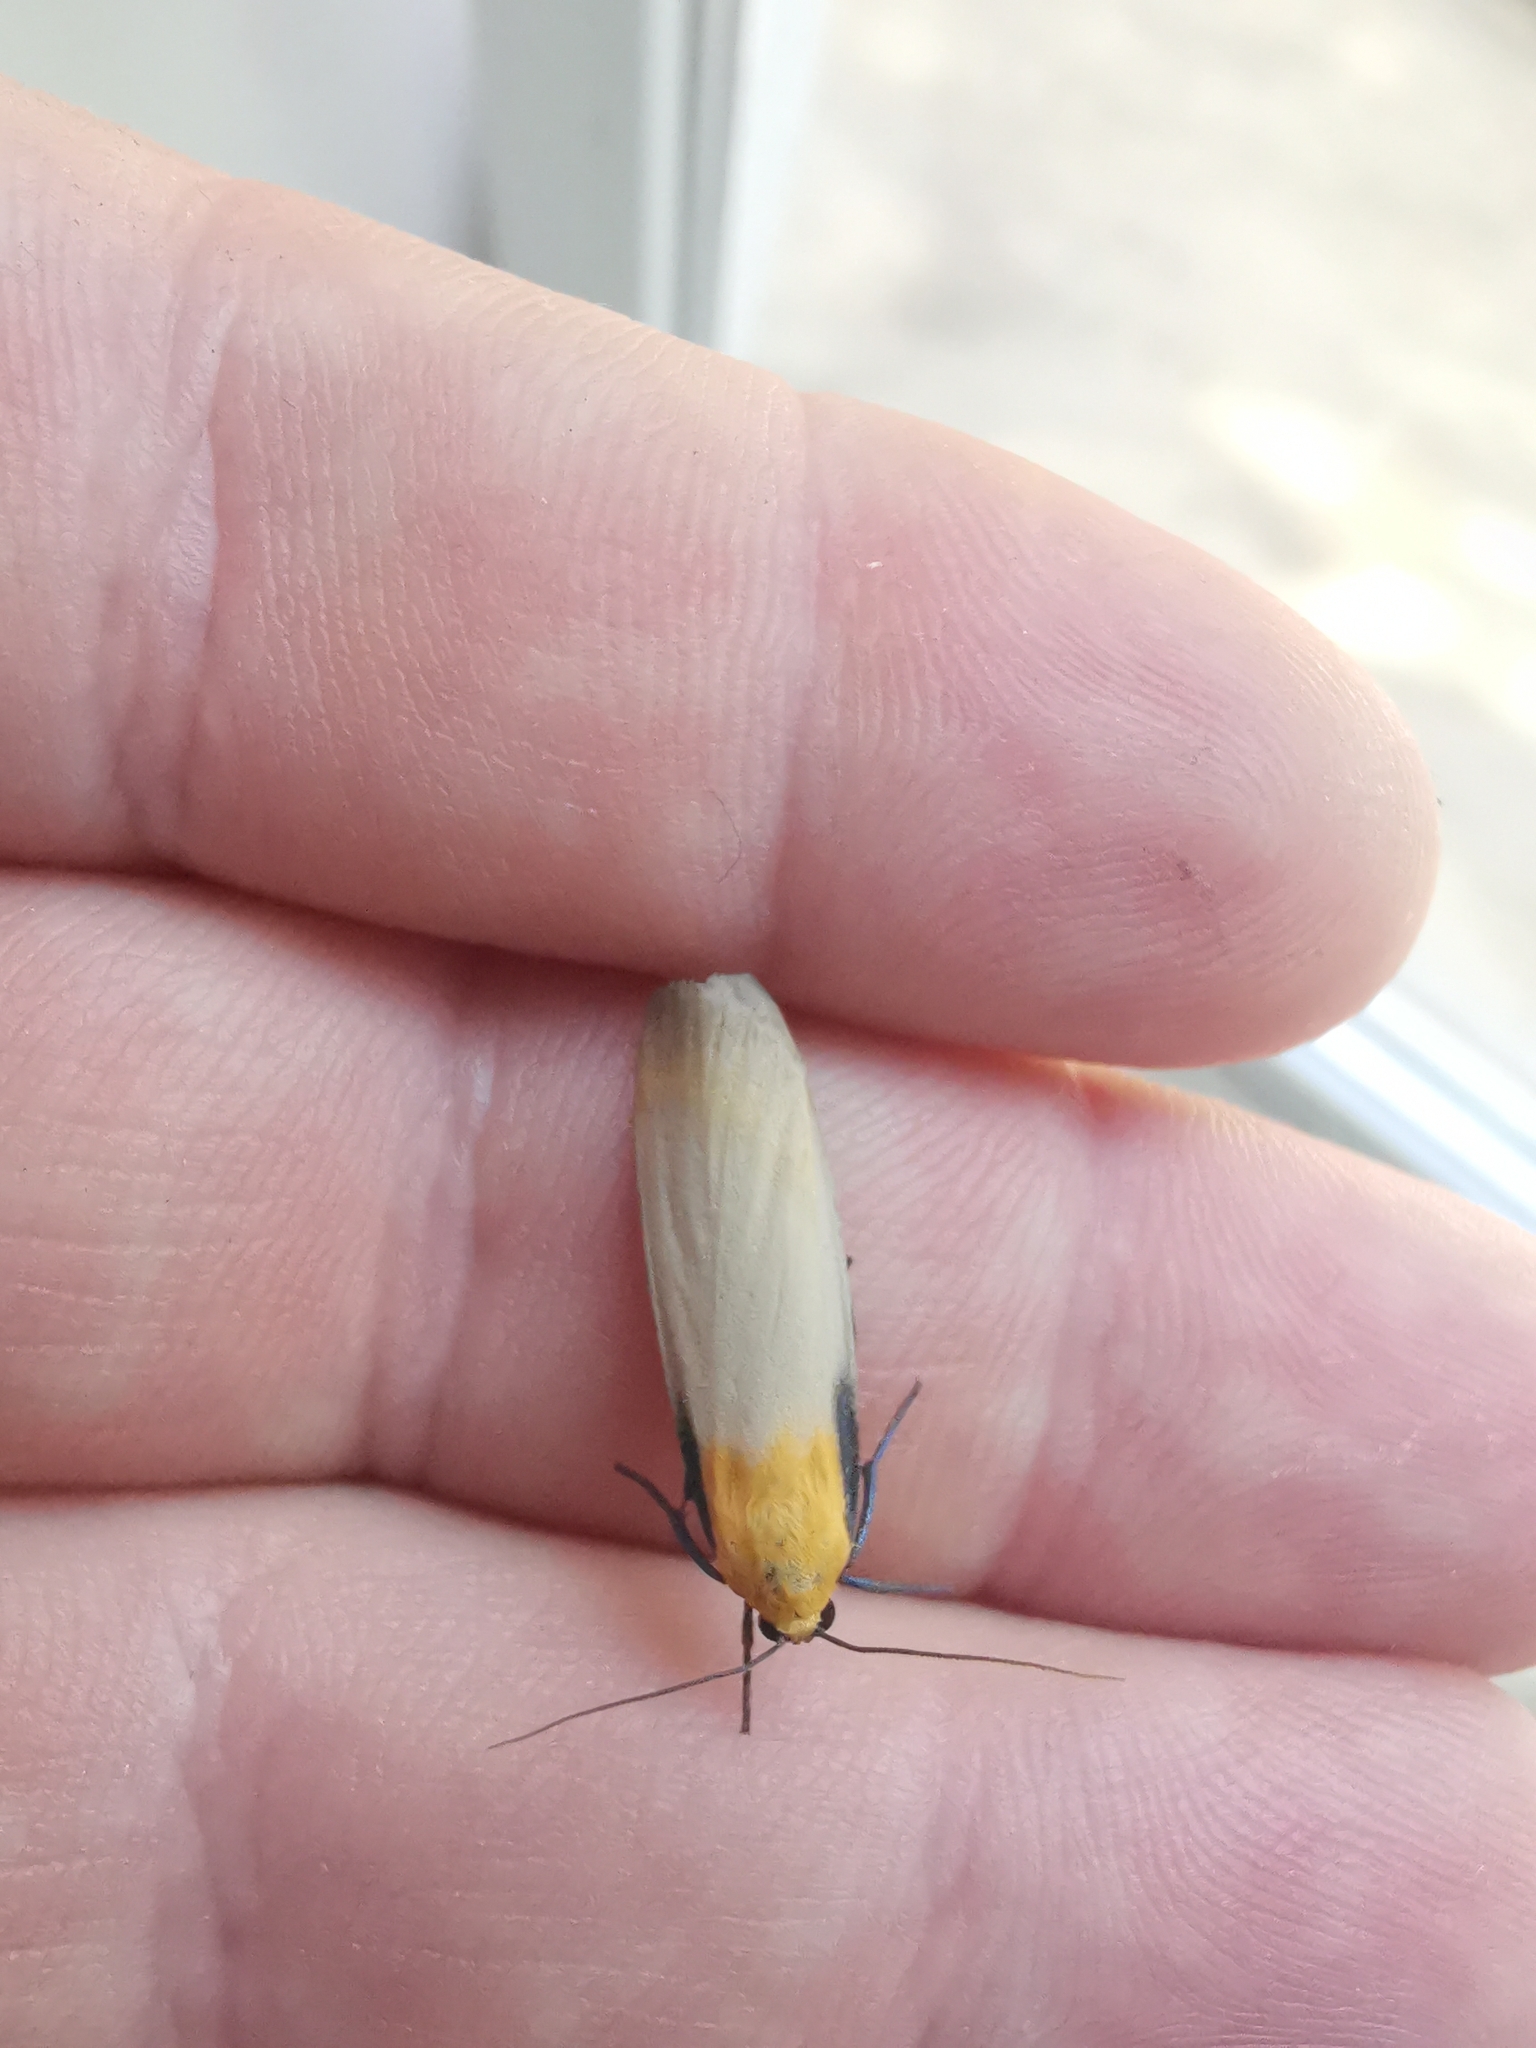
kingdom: Animalia
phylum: Arthropoda
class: Insecta
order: Lepidoptera
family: Erebidae
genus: Lithosia
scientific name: Lithosia quadra
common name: Four-spotted footman
